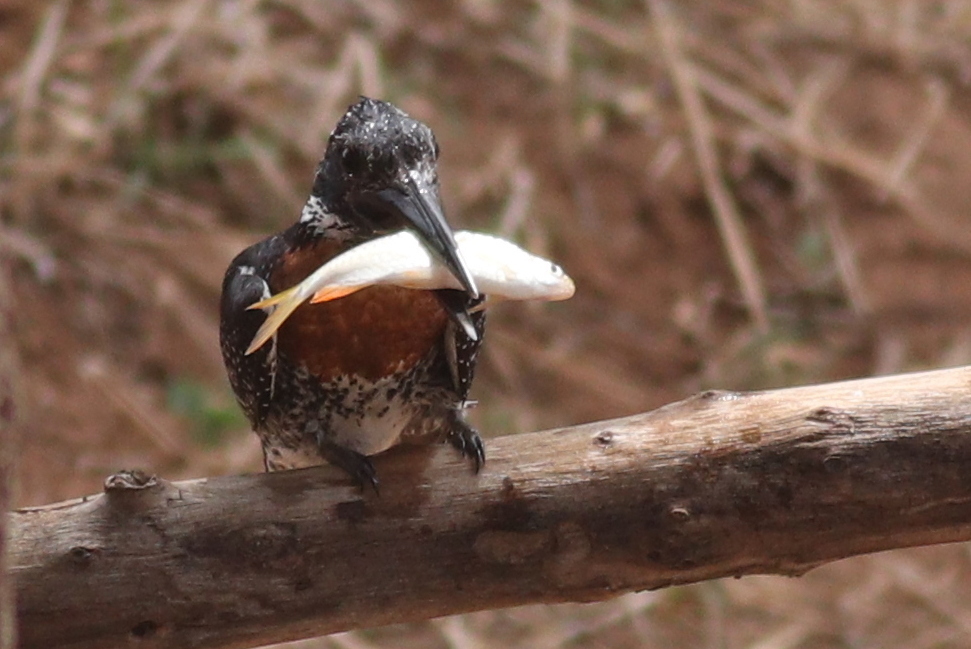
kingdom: Animalia
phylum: Chordata
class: Aves
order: Coraciiformes
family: Alcedinidae
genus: Megaceryle
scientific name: Megaceryle maxima
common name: Giant kingfisher
